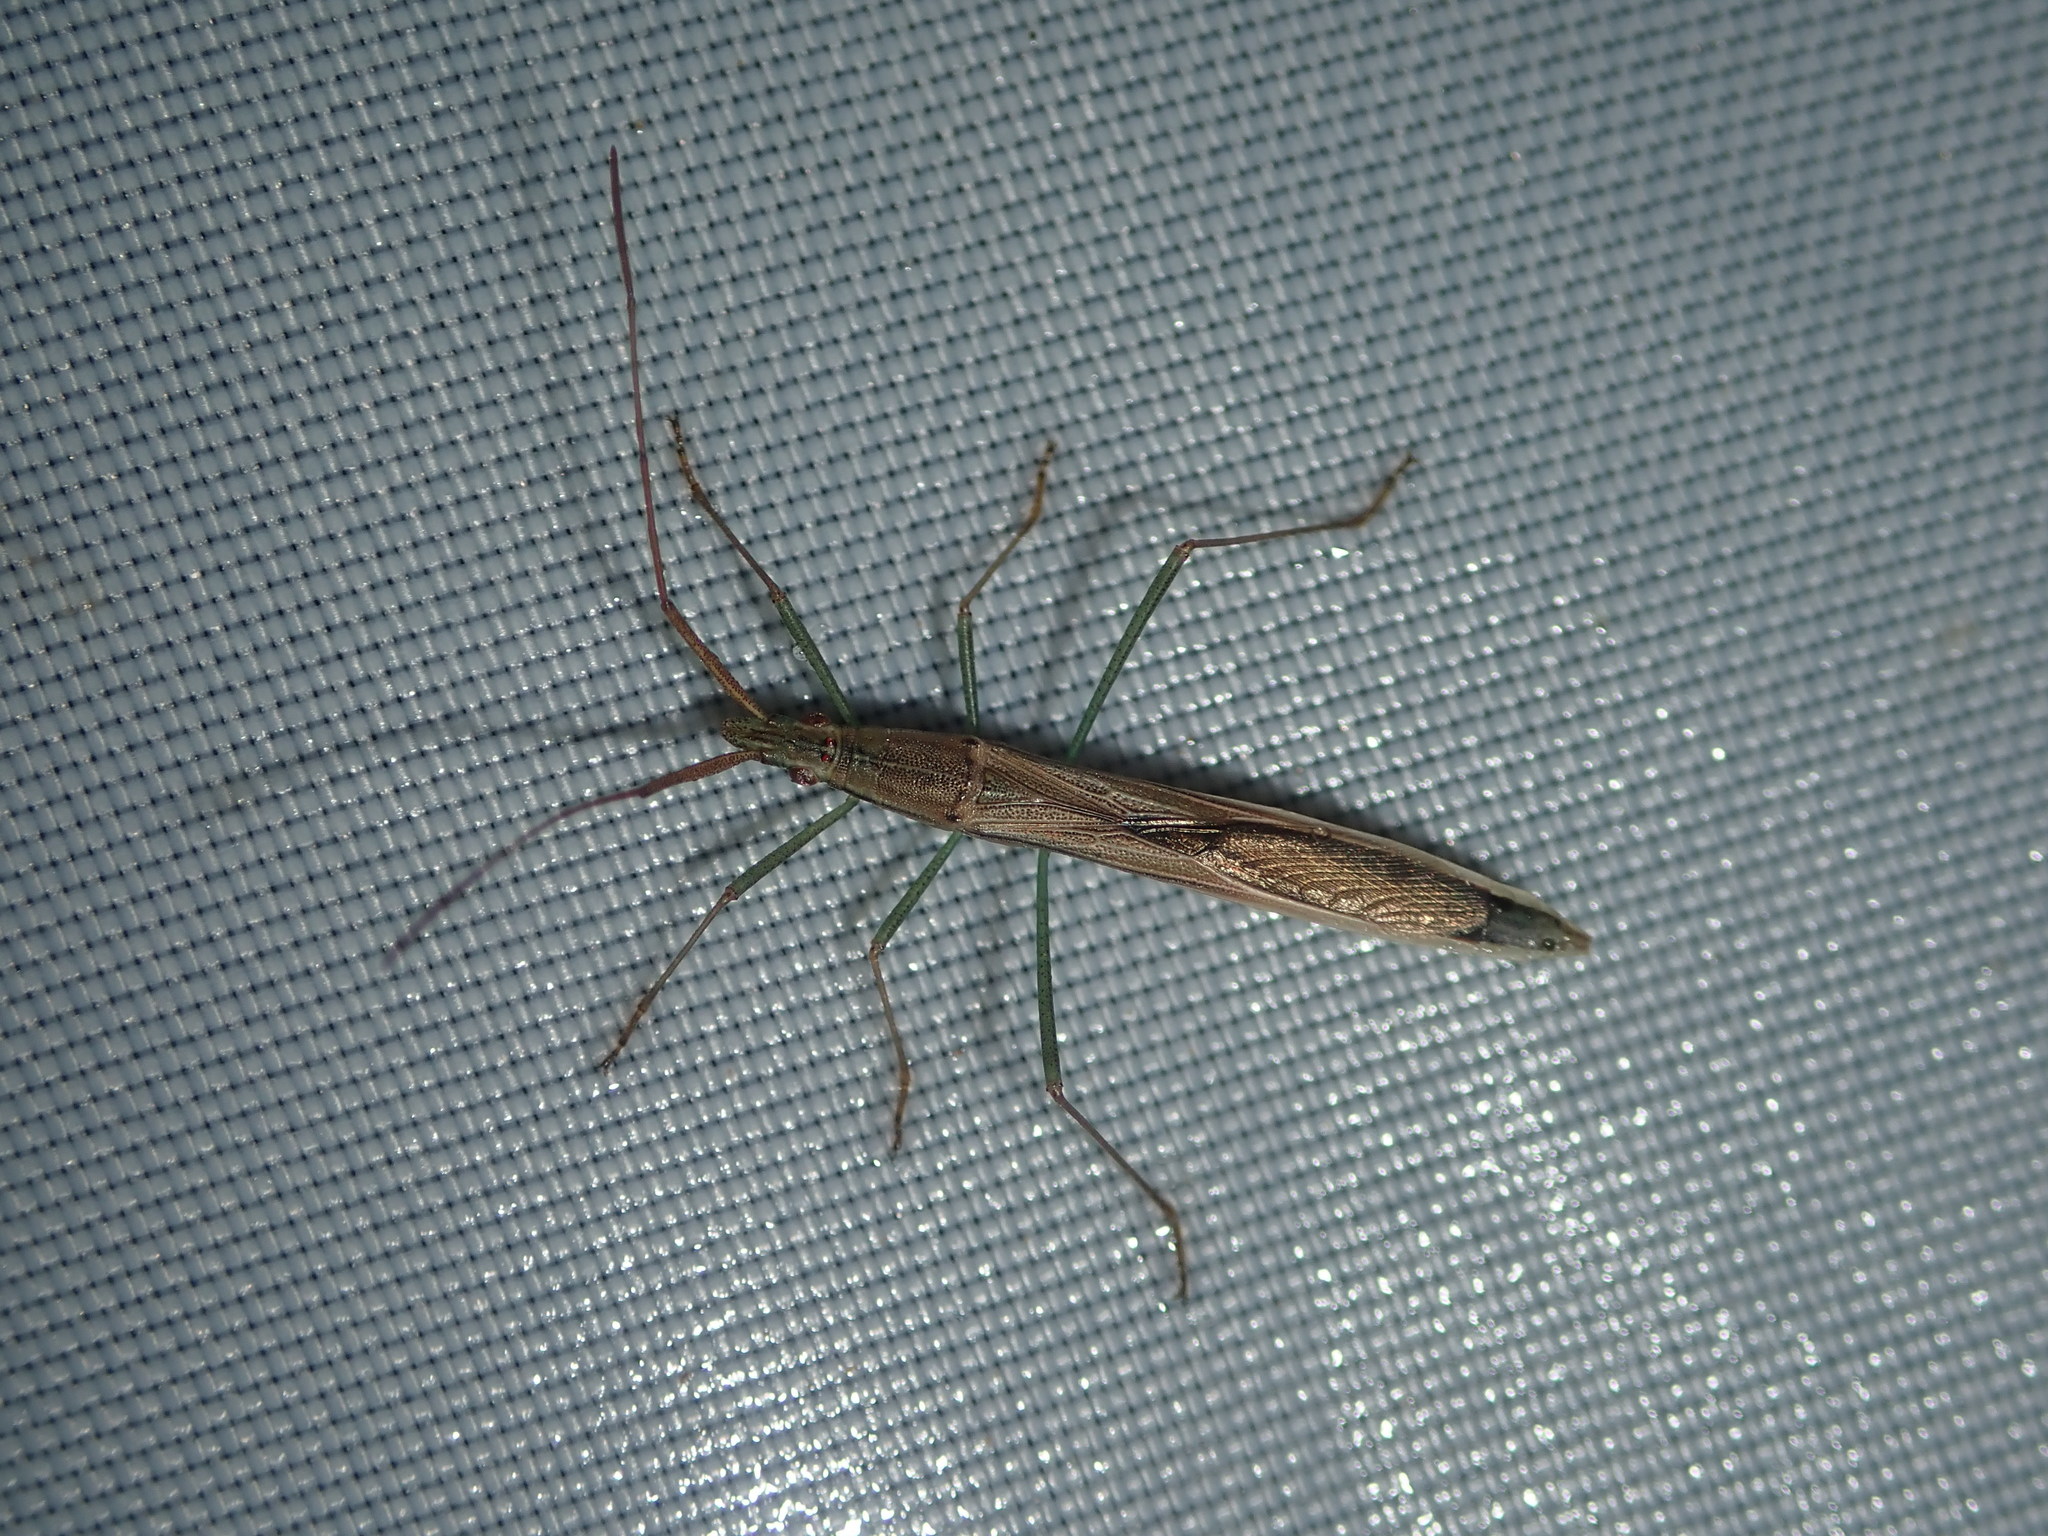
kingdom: Animalia
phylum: Arthropoda
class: Insecta
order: Hemiptera
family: Alydidae
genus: Mutusca
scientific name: Mutusca brevicornis
